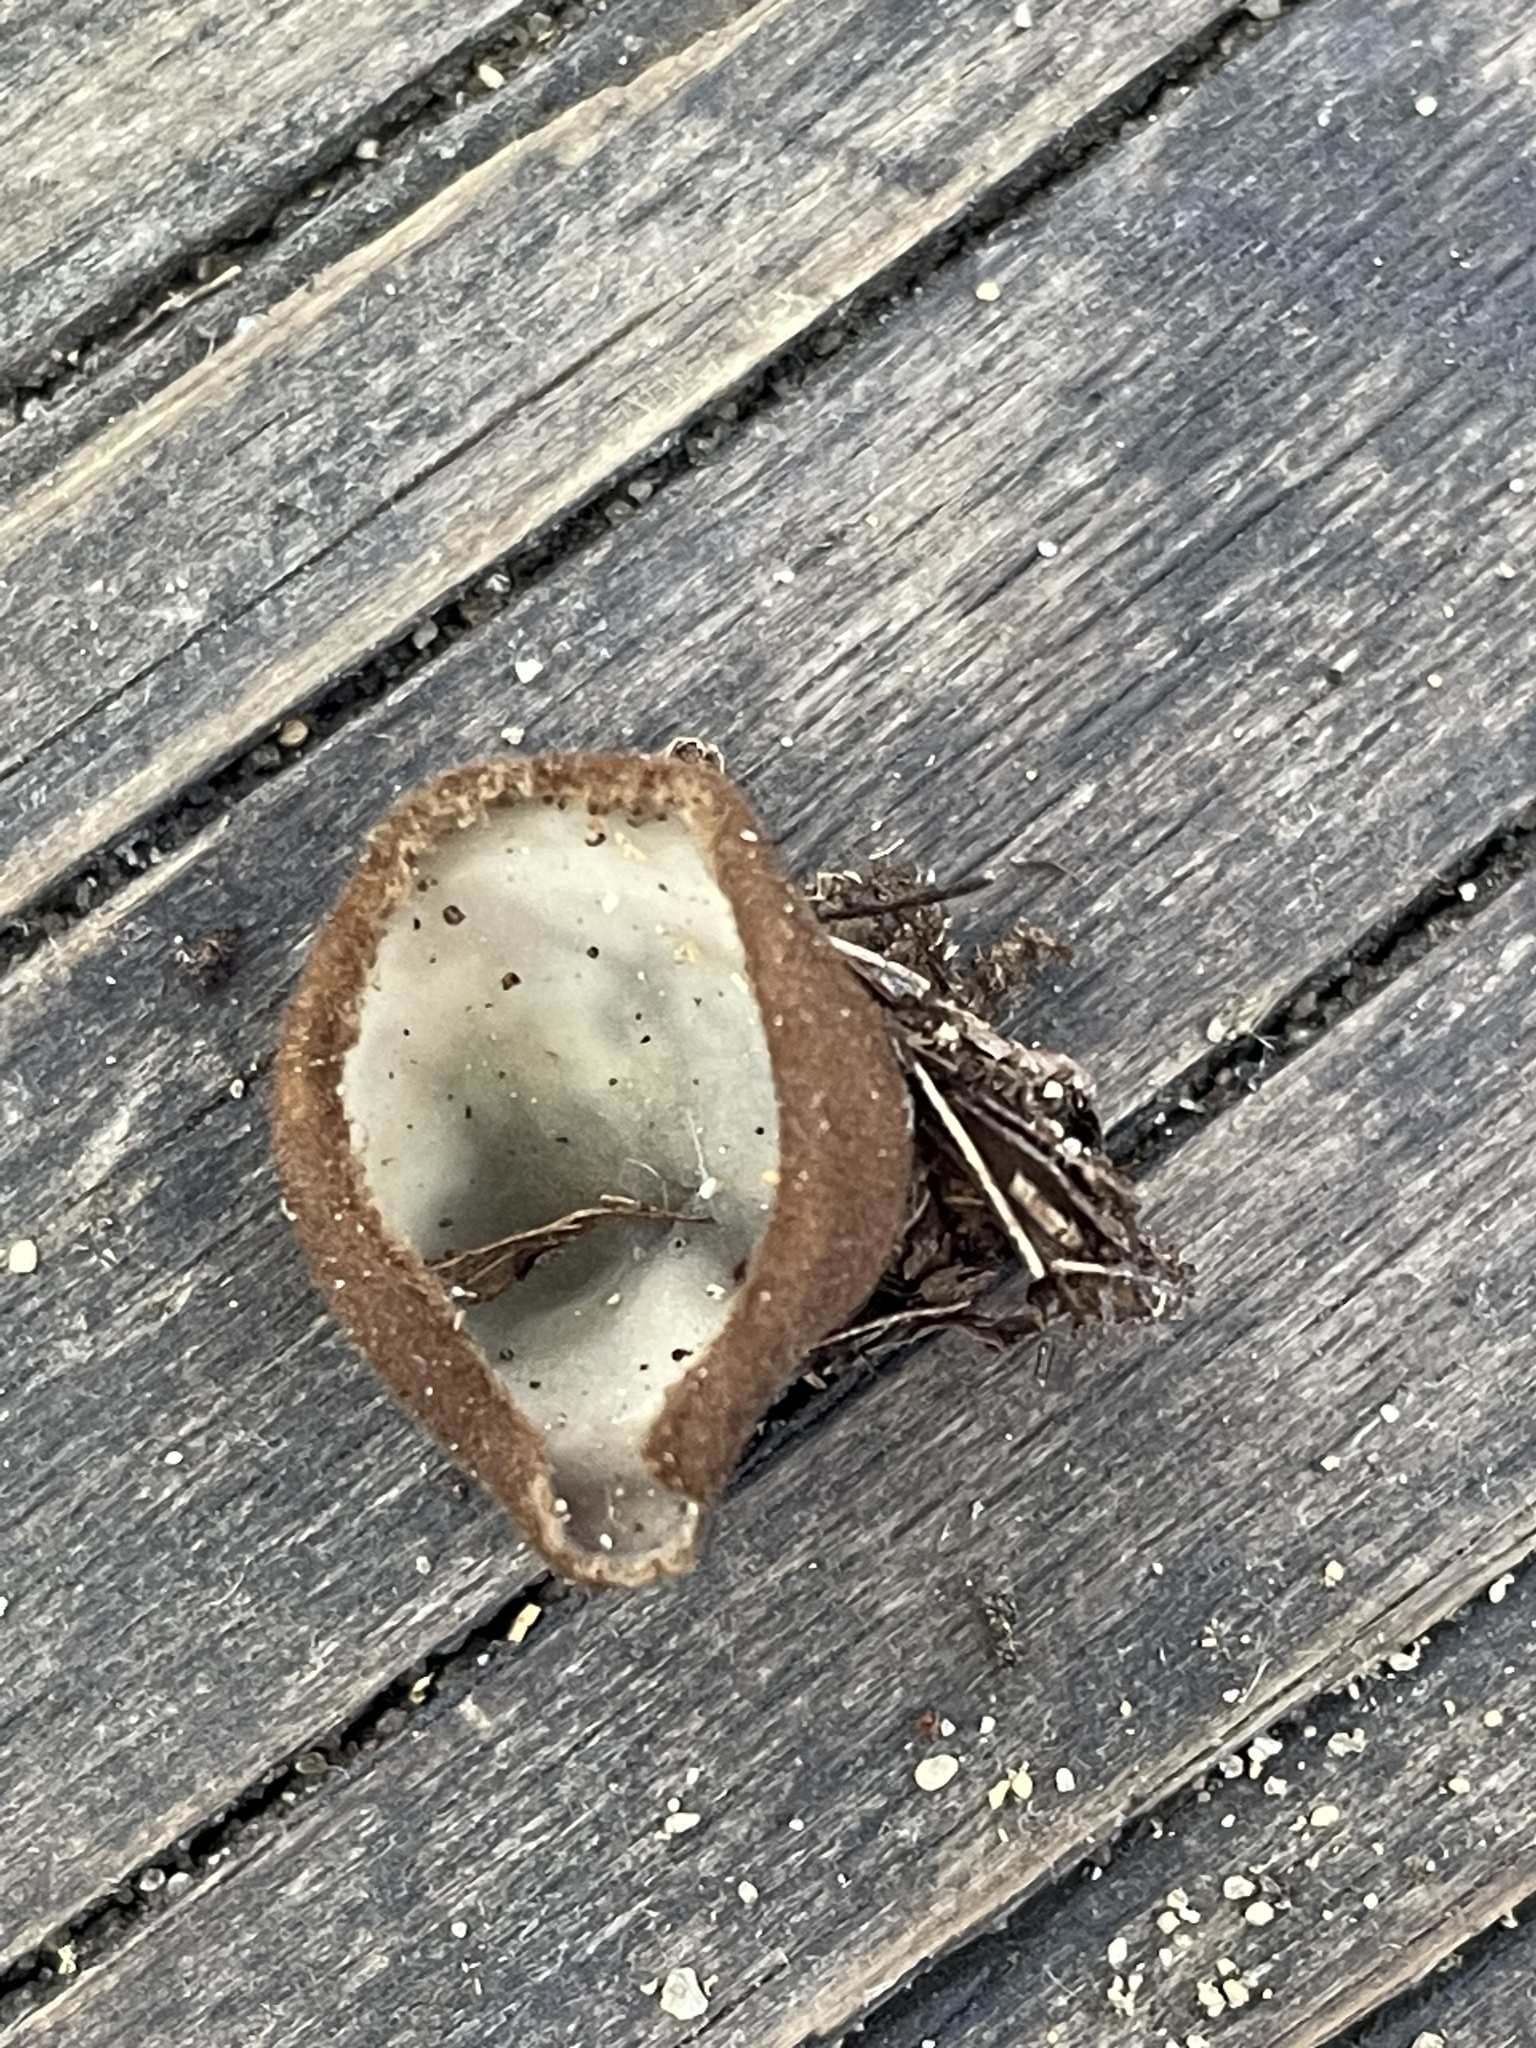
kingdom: Fungi
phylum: Ascomycota
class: Pezizomycetes
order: Pezizales
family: Pyronemataceae
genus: Humaria
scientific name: Humaria hemisphaerica
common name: Glazed cup
